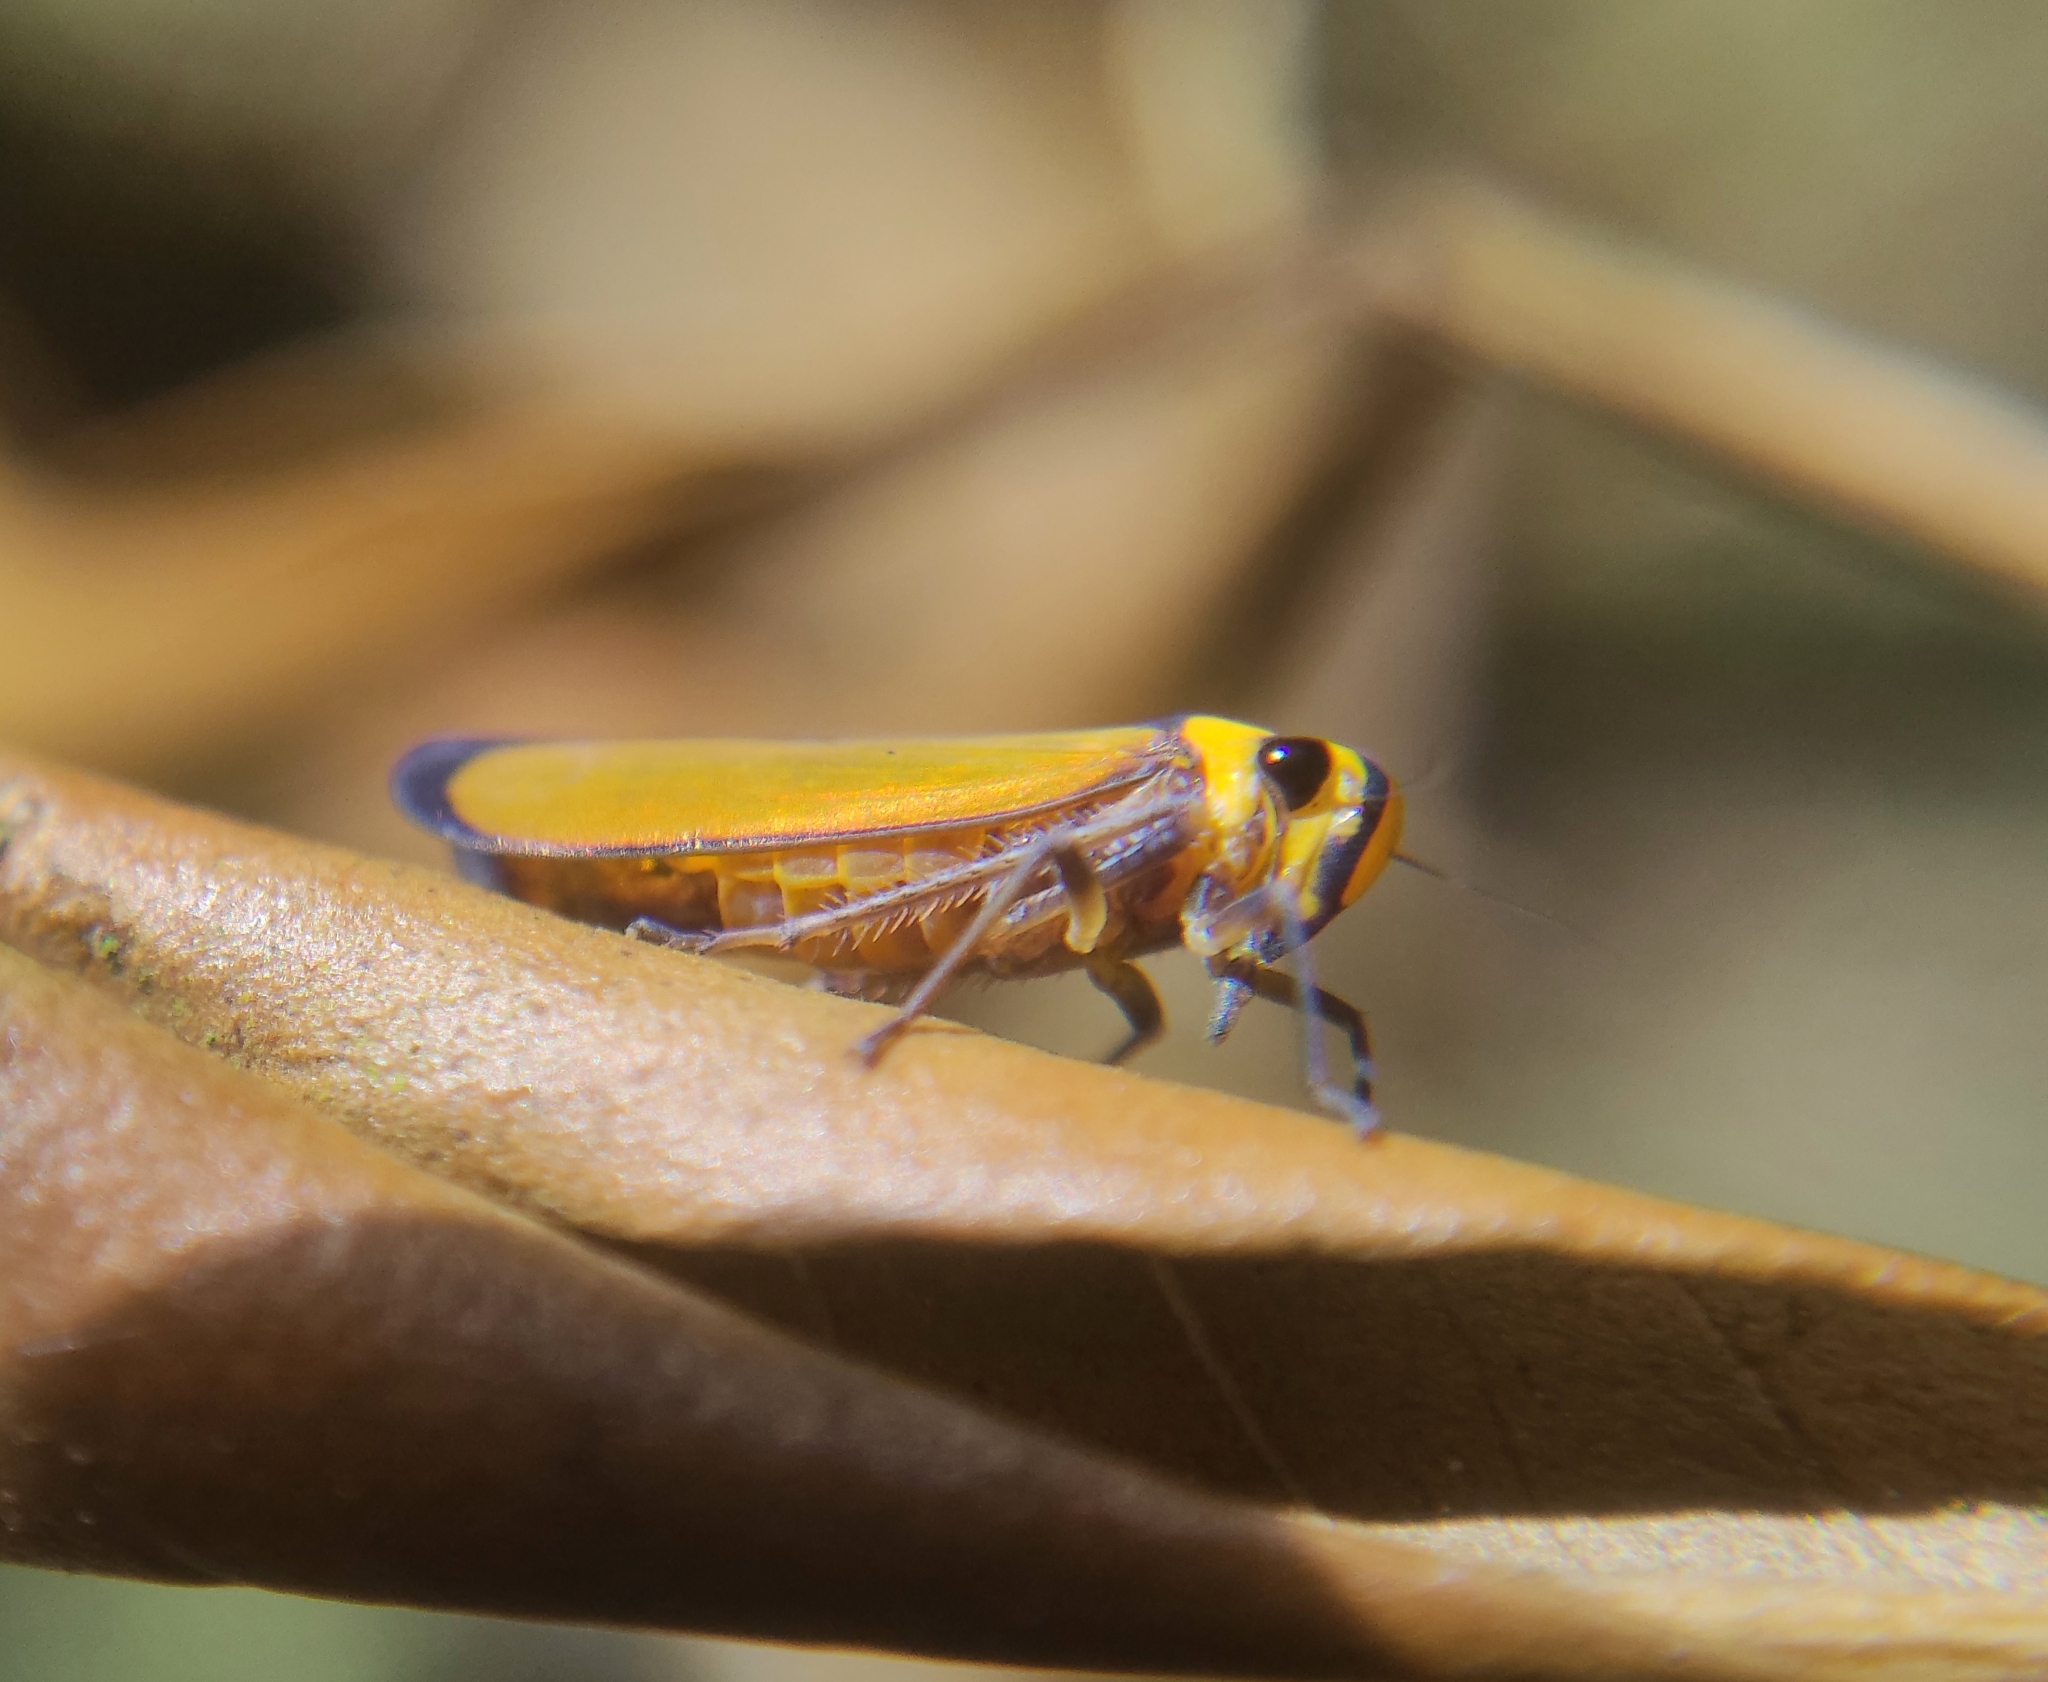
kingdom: Animalia
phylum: Arthropoda
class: Insecta
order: Hemiptera
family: Cicadellidae
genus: Paratubana
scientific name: Paratubana nigrocincta
